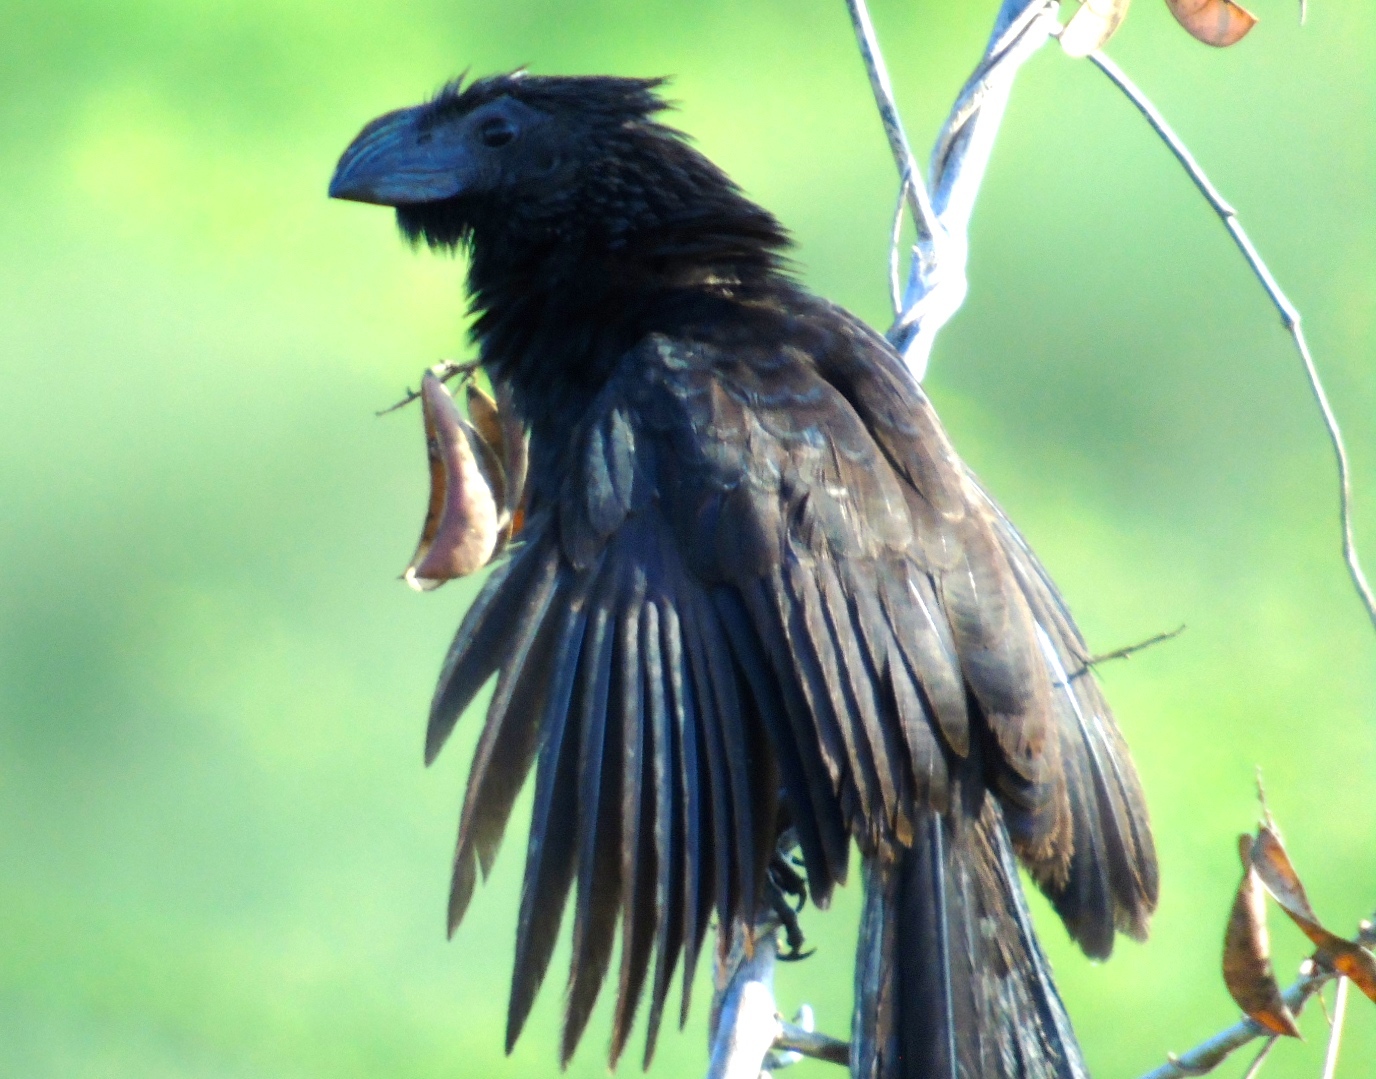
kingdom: Animalia
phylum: Chordata
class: Aves
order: Cuculiformes
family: Cuculidae
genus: Crotophaga
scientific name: Crotophaga sulcirostris
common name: Groove-billed ani
